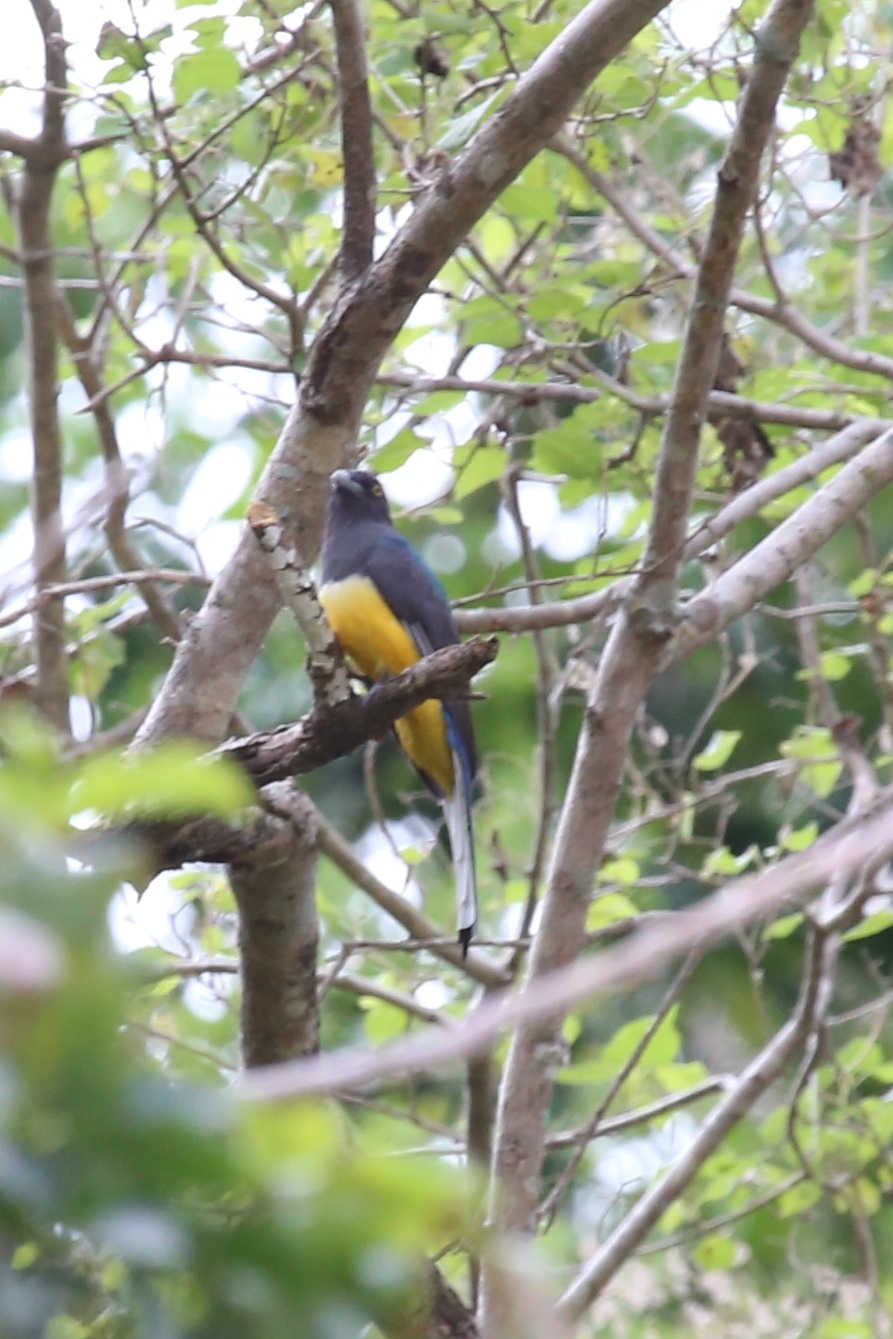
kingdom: Animalia
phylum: Chordata
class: Aves
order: Trogoniformes
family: Trogonidae
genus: Trogon
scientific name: Trogon citreolus
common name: Citreoline trogon
